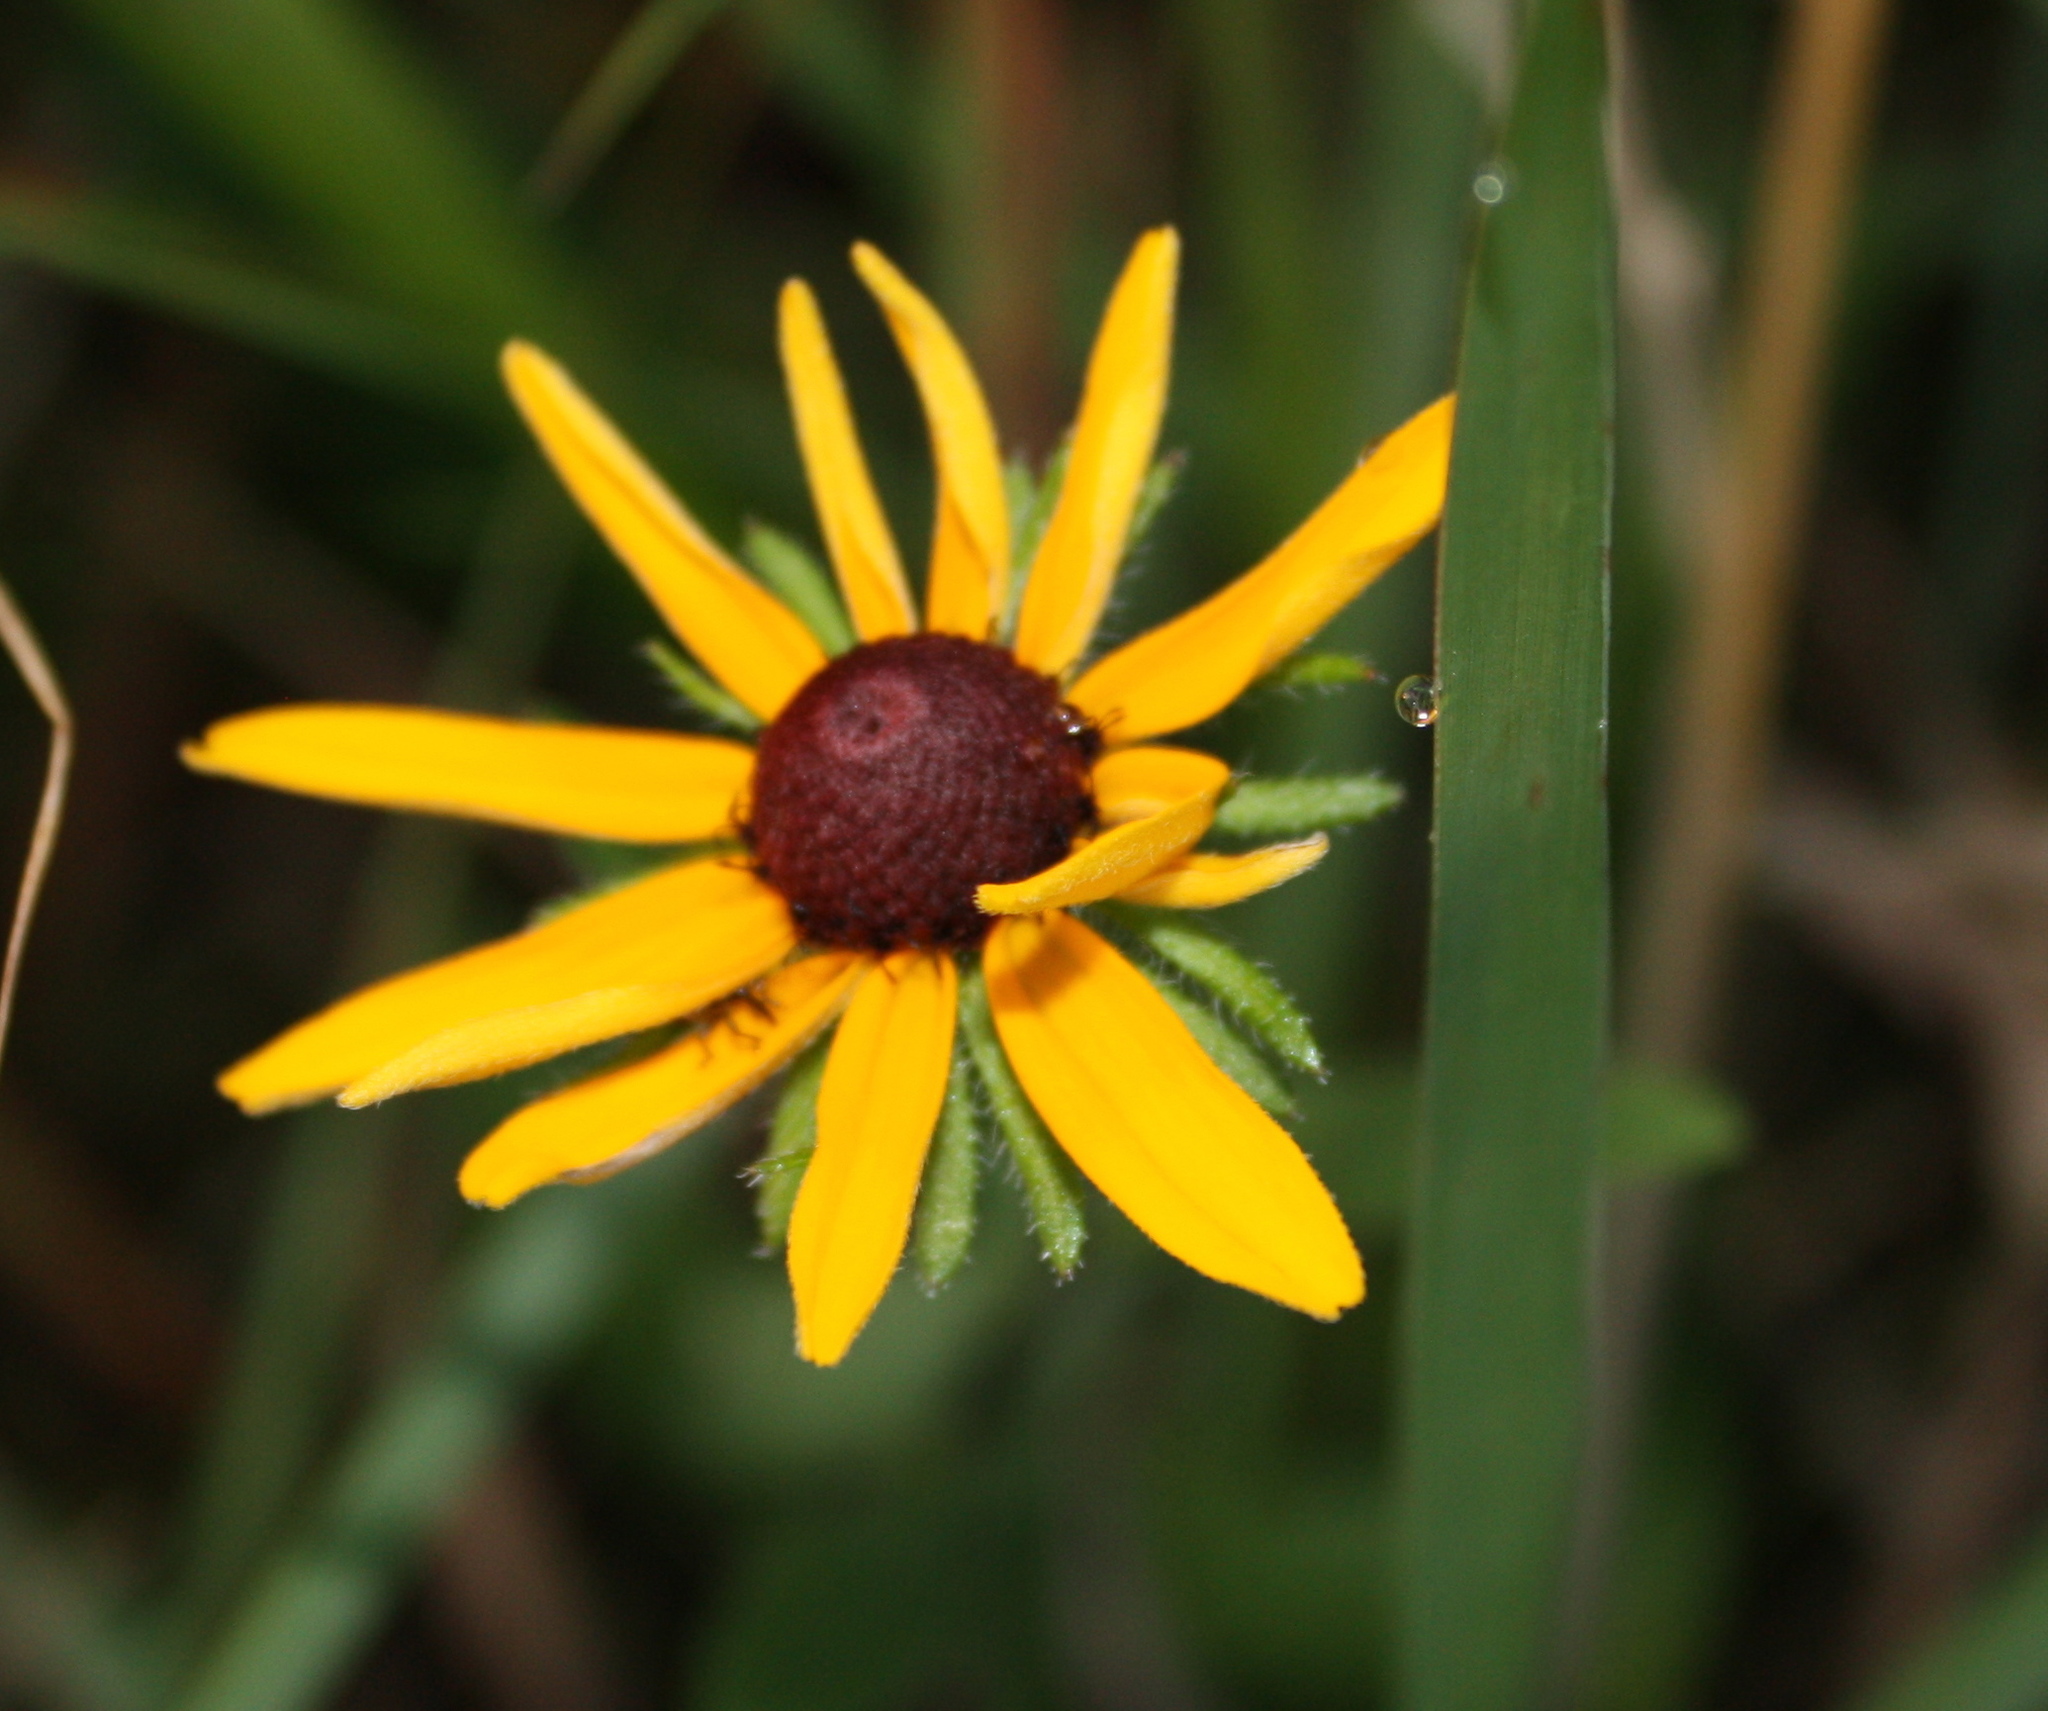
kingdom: Plantae
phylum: Tracheophyta
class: Magnoliopsida
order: Asterales
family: Asteraceae
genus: Rudbeckia
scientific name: Rudbeckia hirta
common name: Black-eyed-susan
